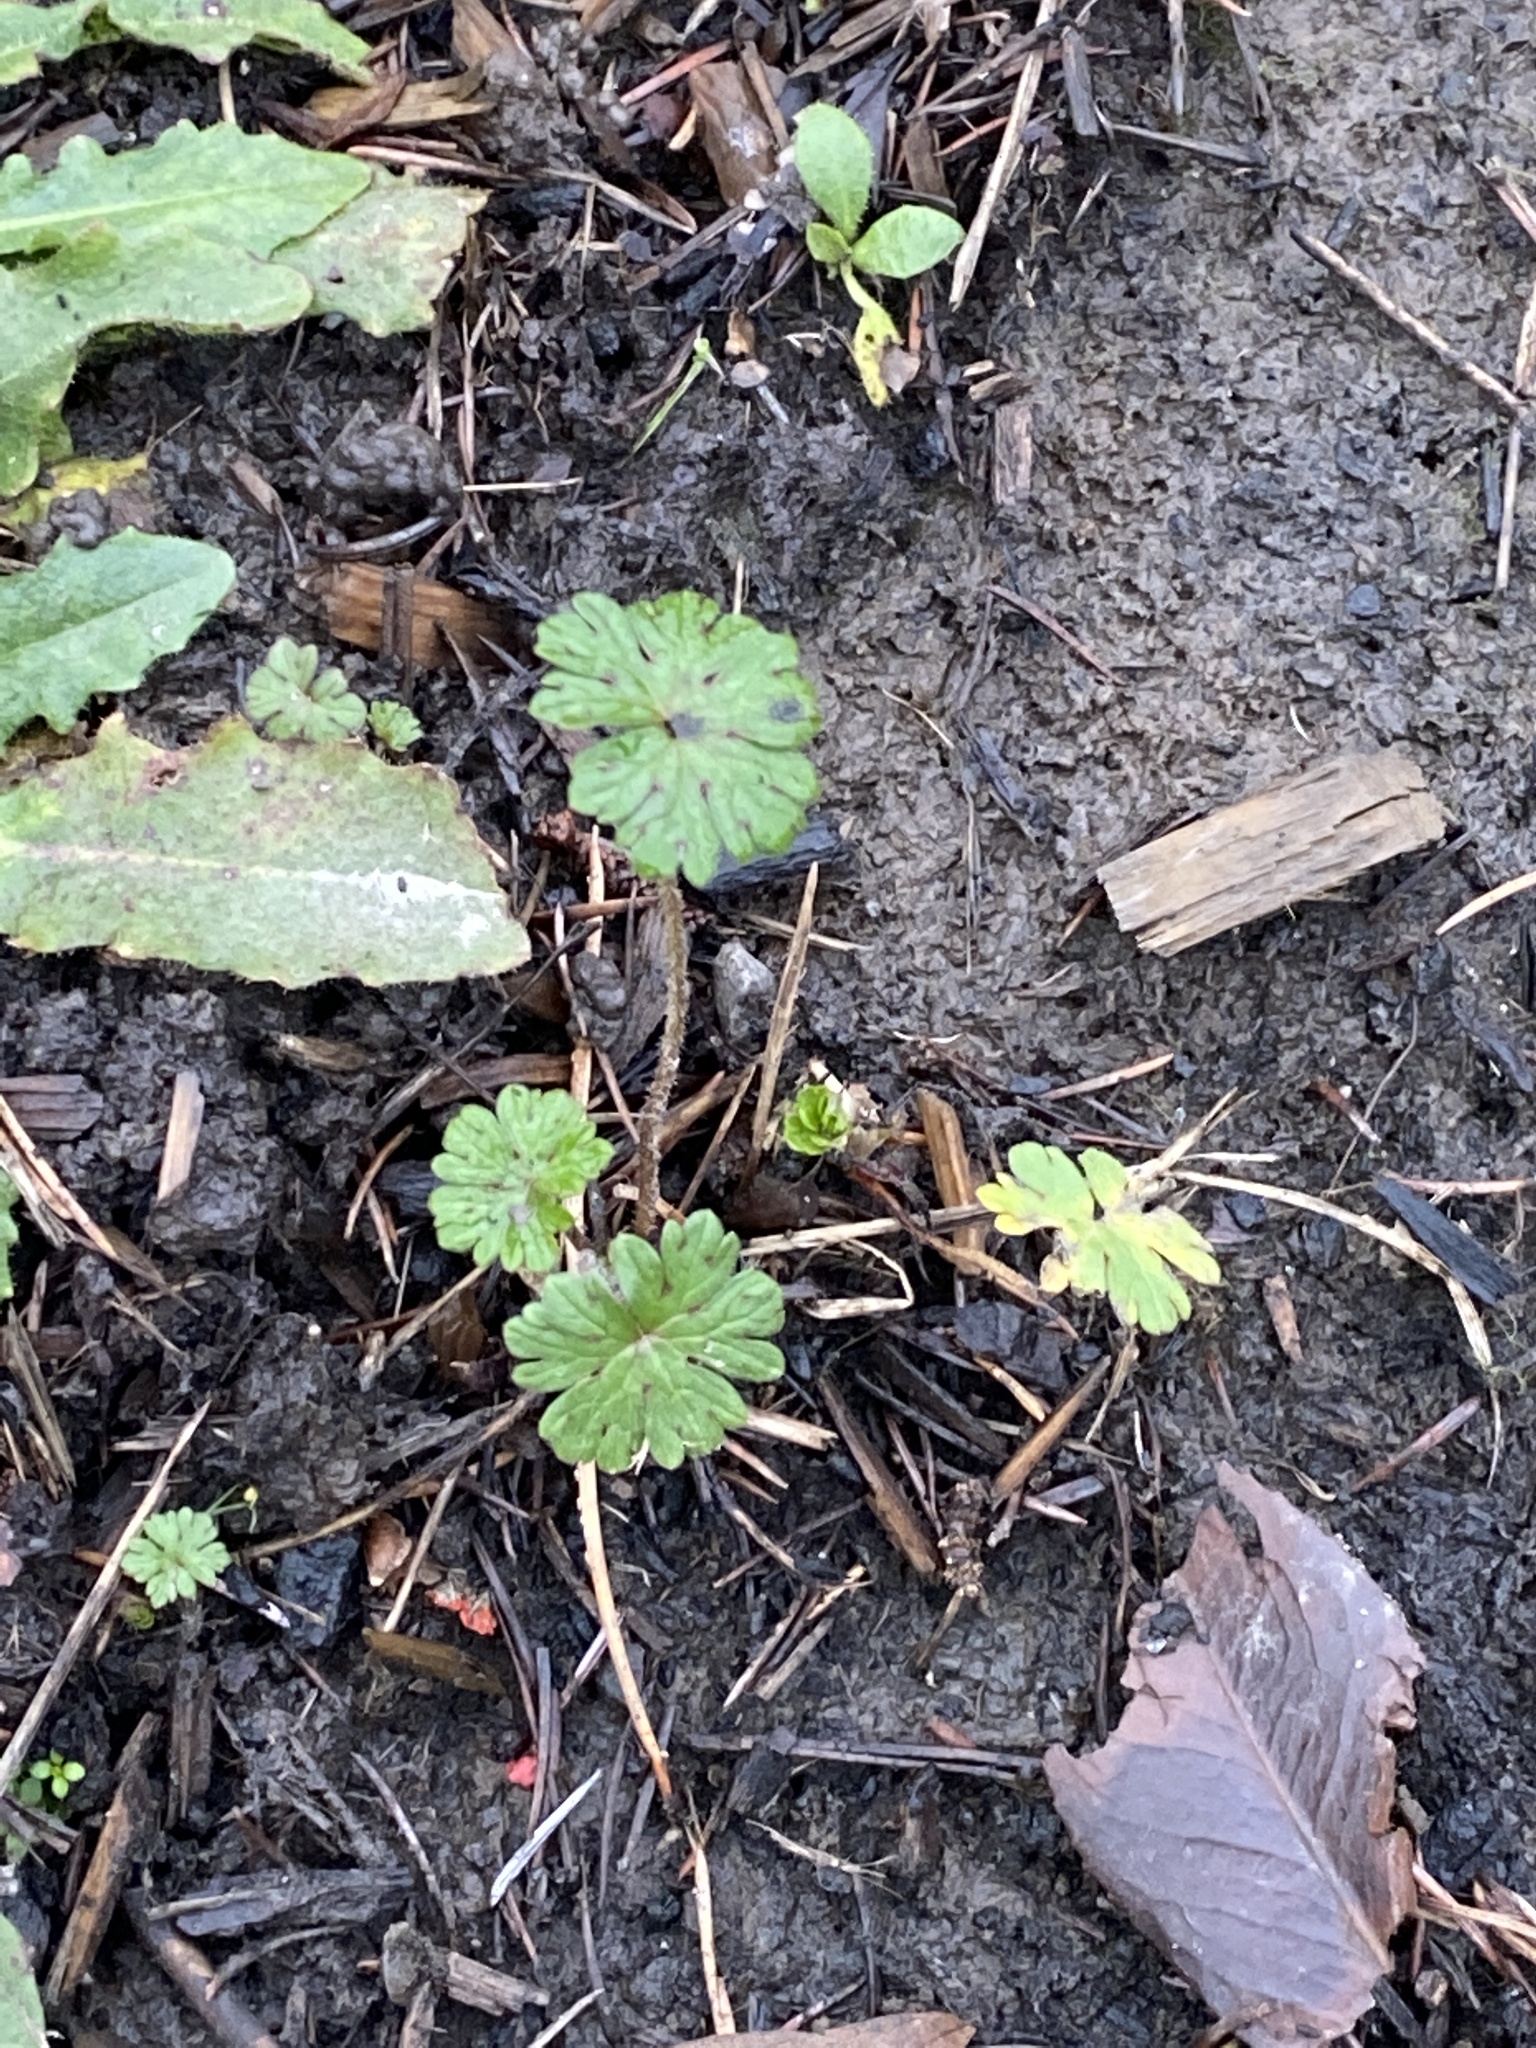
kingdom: Plantae
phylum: Tracheophyta
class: Magnoliopsida
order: Geraniales
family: Geraniaceae
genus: Geranium
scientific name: Geranium molle
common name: Dove's-foot crane's-bill
